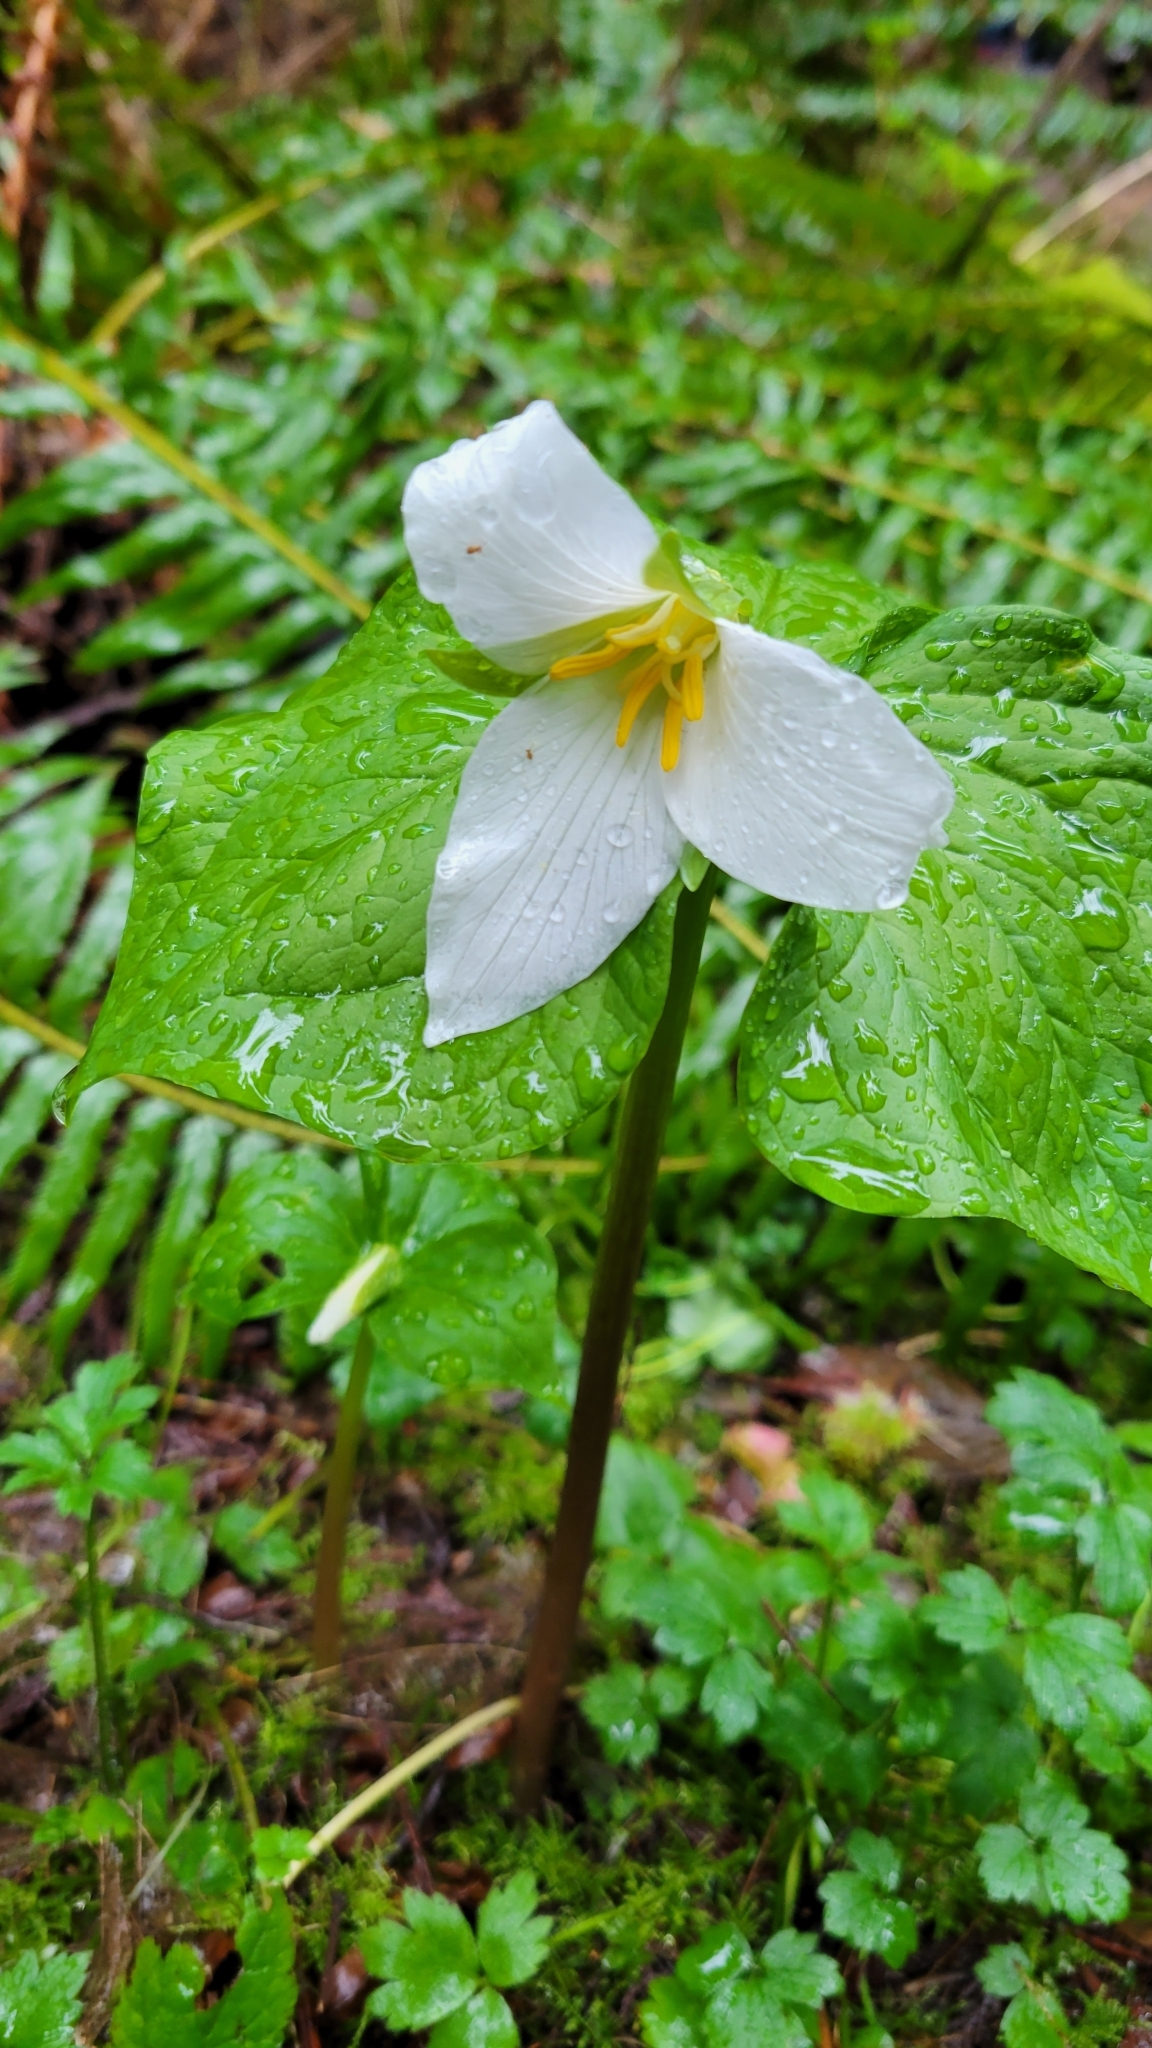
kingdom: Plantae
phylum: Tracheophyta
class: Liliopsida
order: Liliales
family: Melanthiaceae
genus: Trillium
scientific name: Trillium ovatum
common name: Pacific trillium
